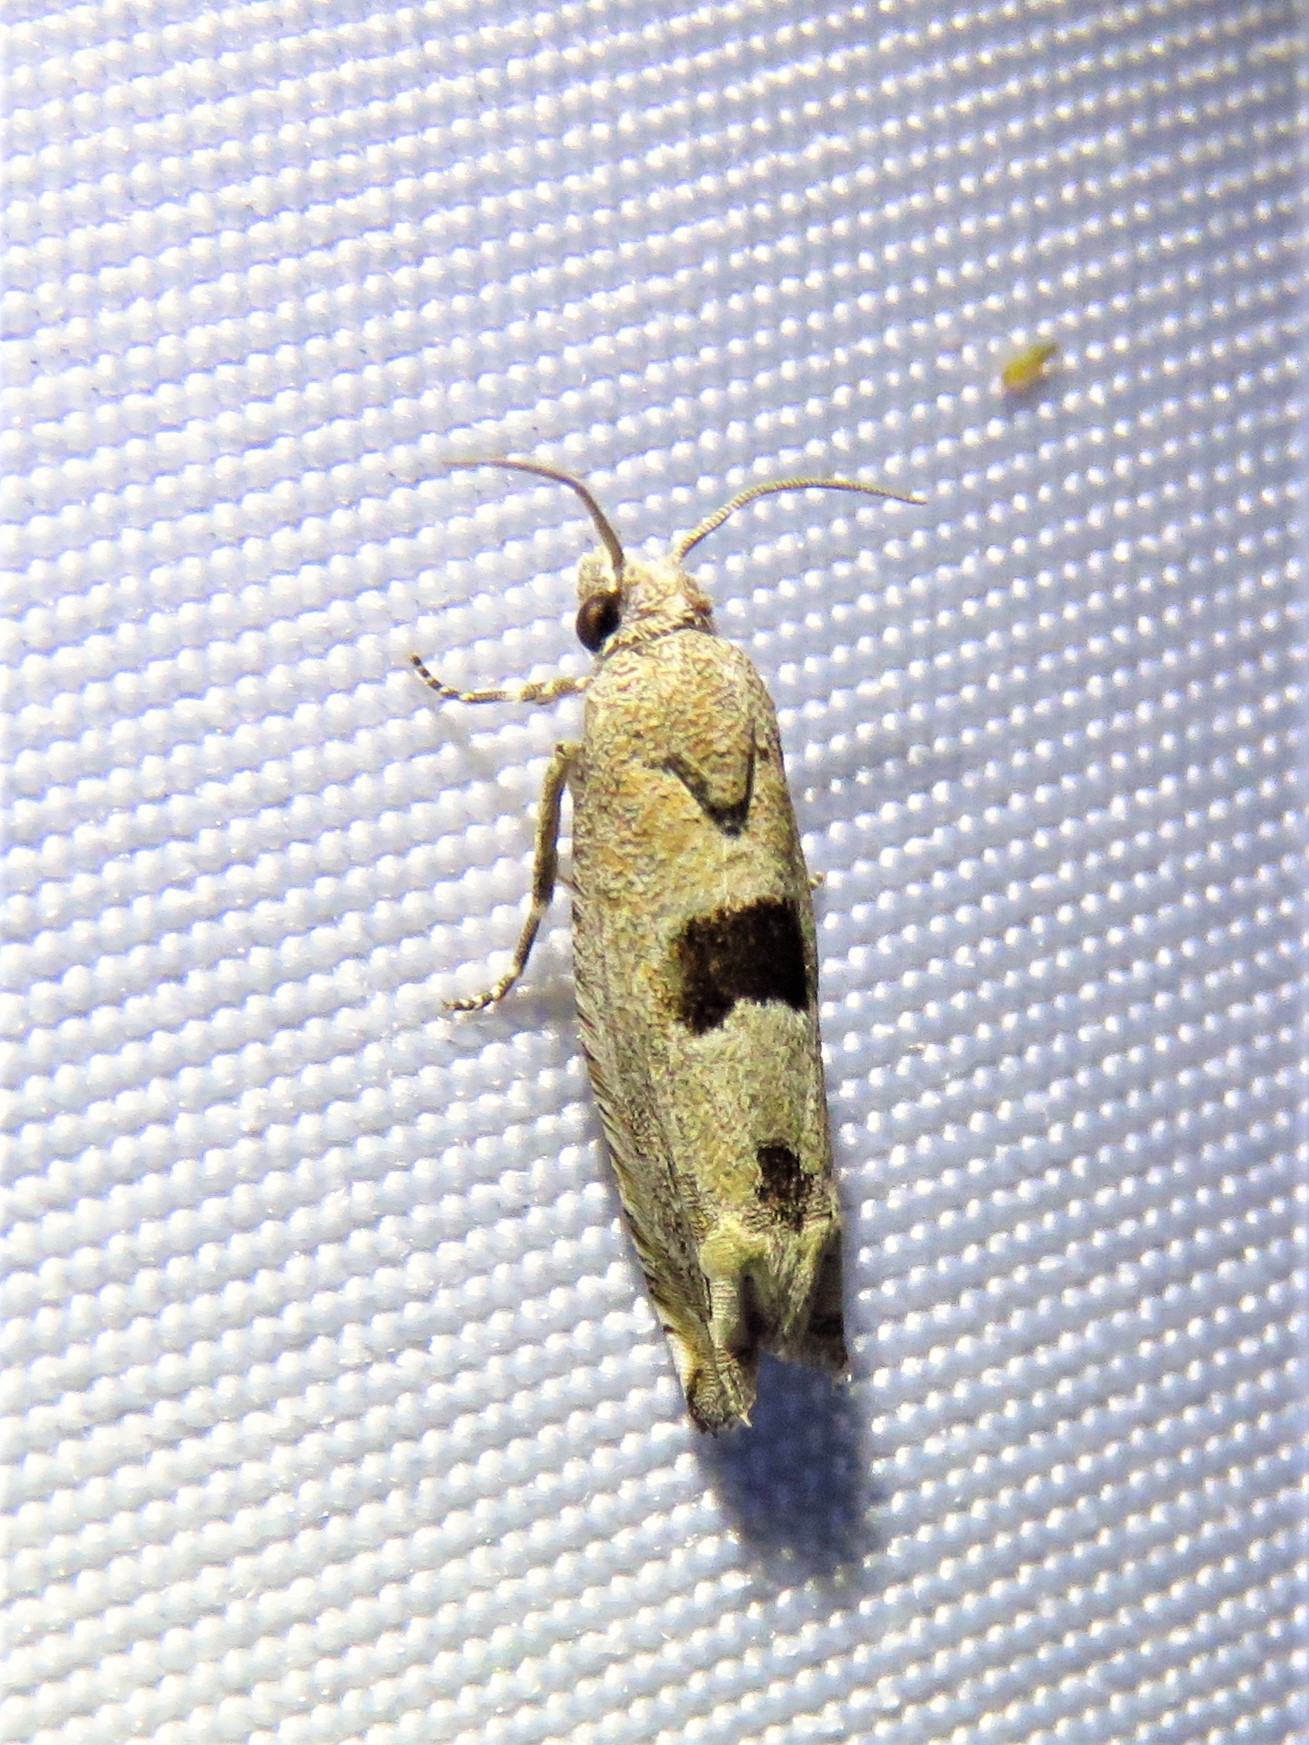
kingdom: Animalia
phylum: Arthropoda
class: Insecta
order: Lepidoptera
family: Tortricidae
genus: Suleima
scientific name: Suleima helianthana
